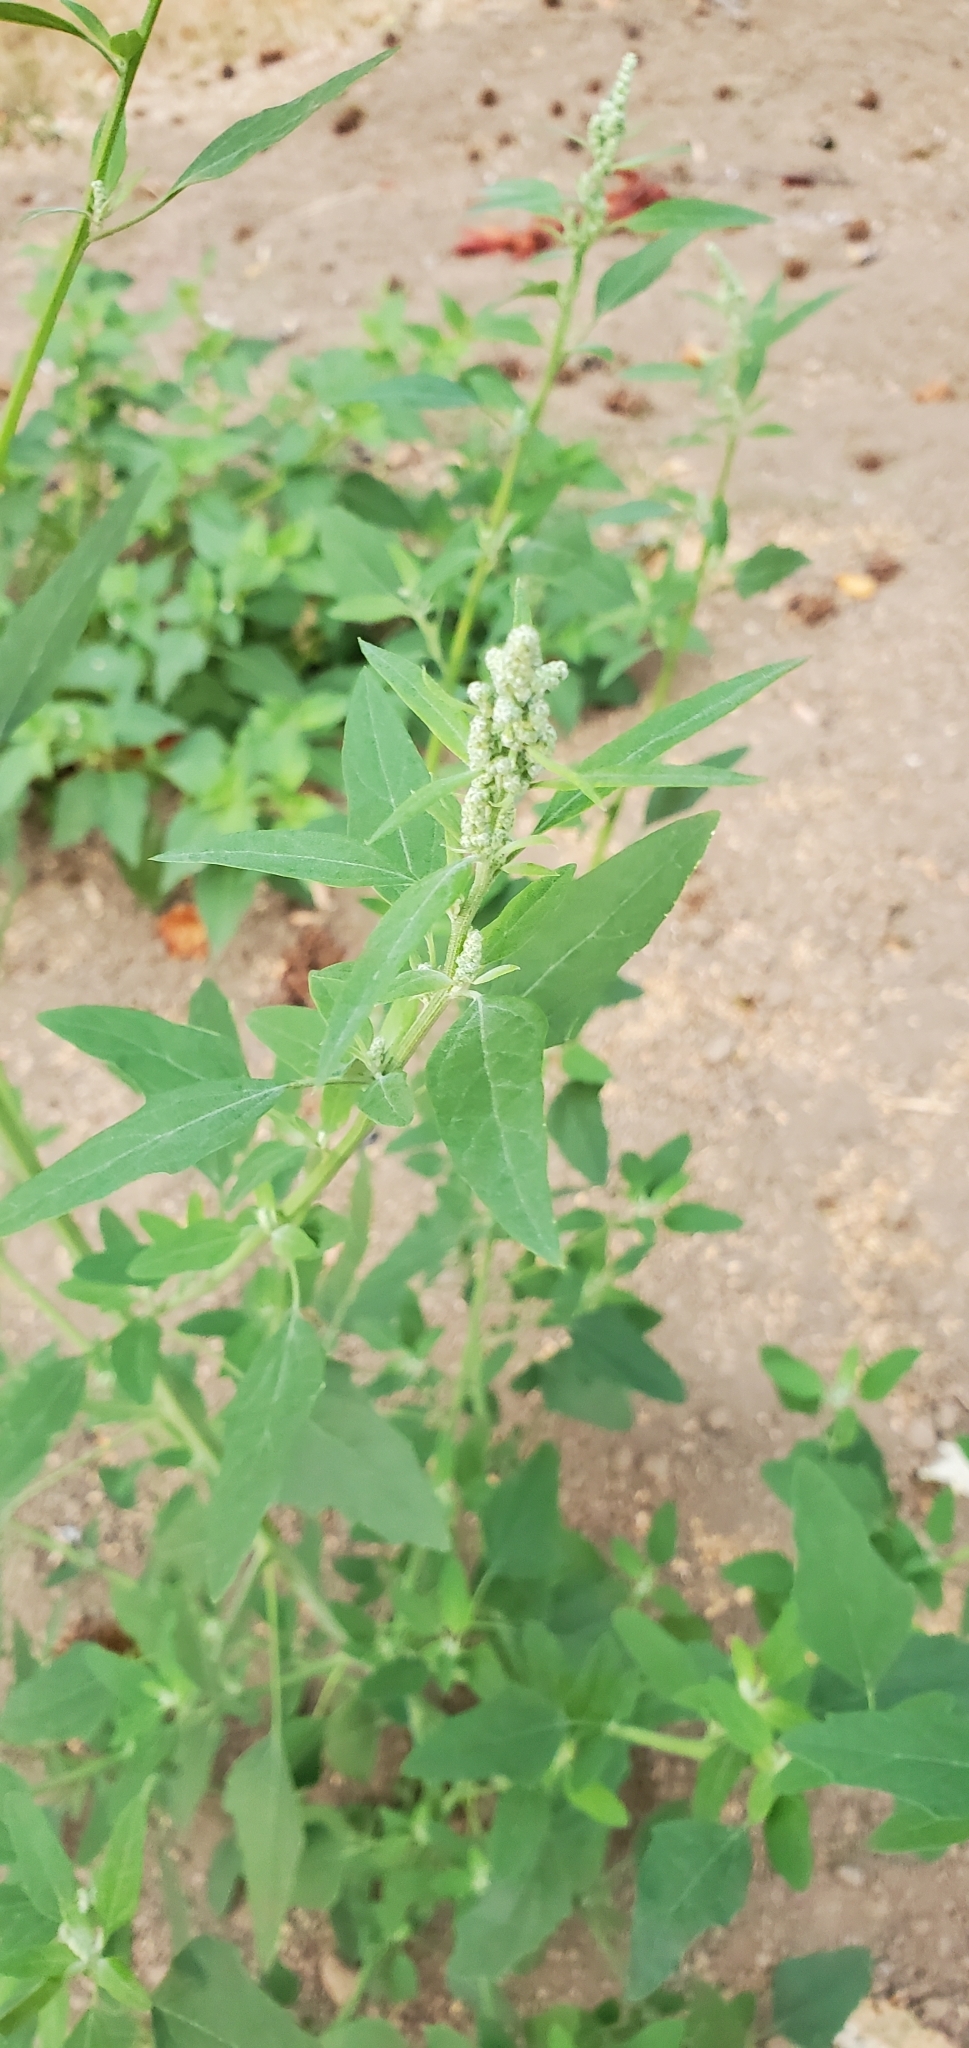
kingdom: Plantae
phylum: Tracheophyta
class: Magnoliopsida
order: Caryophyllales
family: Amaranthaceae
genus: Chenopodium
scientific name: Chenopodium album
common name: Fat-hen
